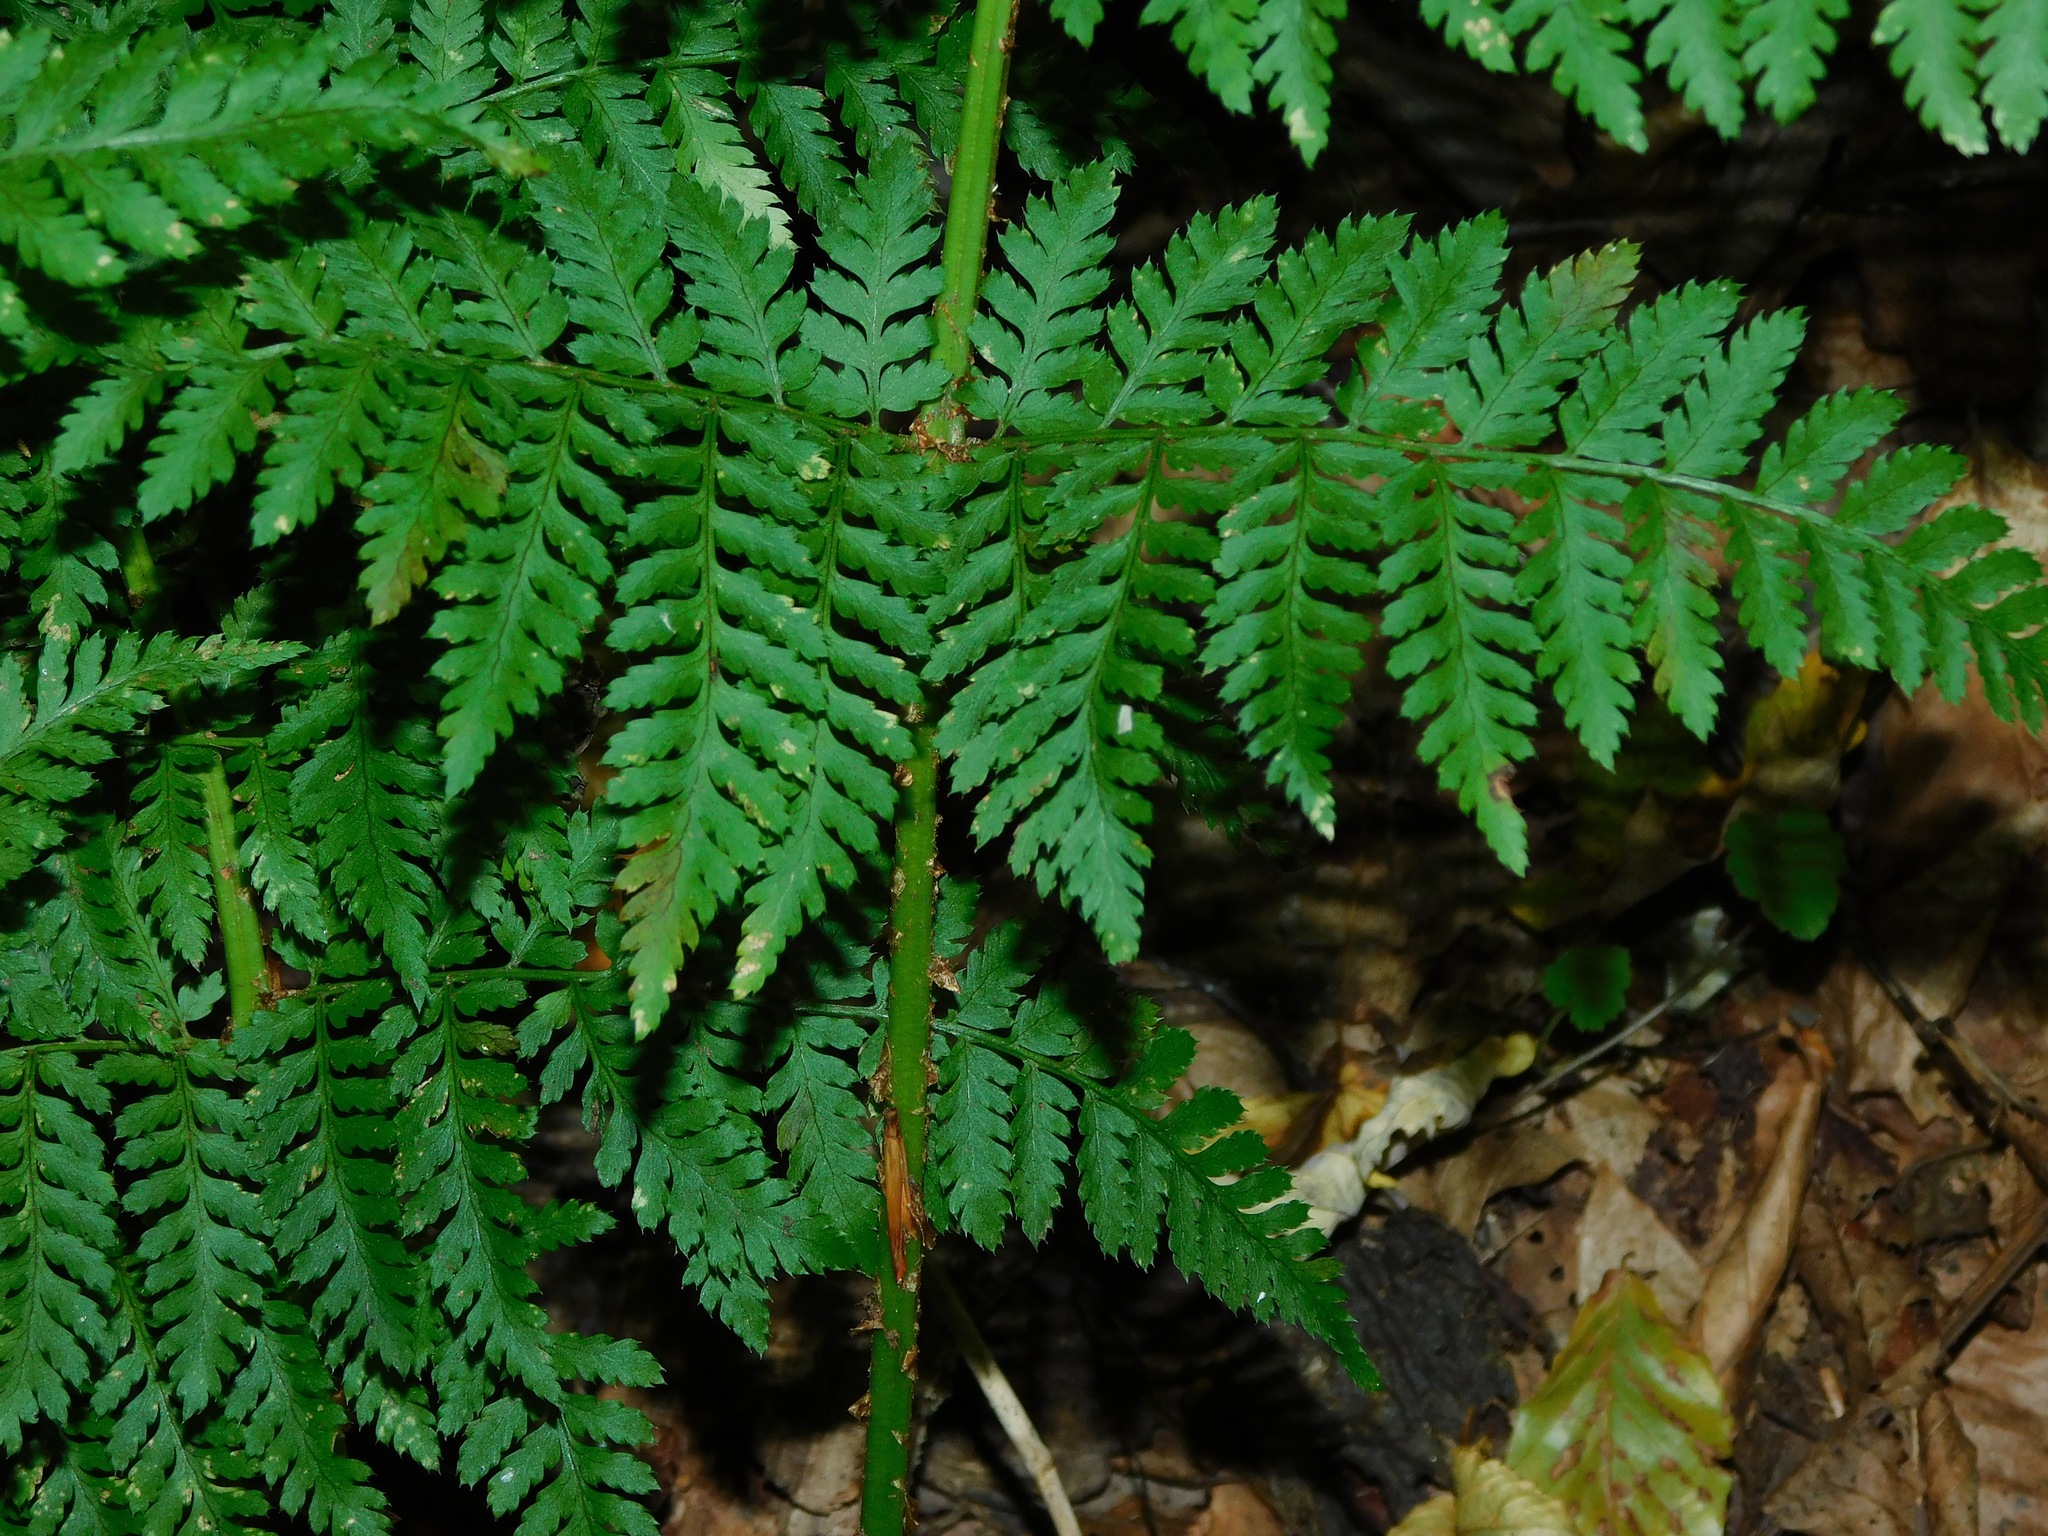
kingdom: Plantae
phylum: Tracheophyta
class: Polypodiopsida
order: Polypodiales
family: Dryopteridaceae
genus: Dryopteris
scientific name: Dryopteris intermedia
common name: Evergreen wood fern
